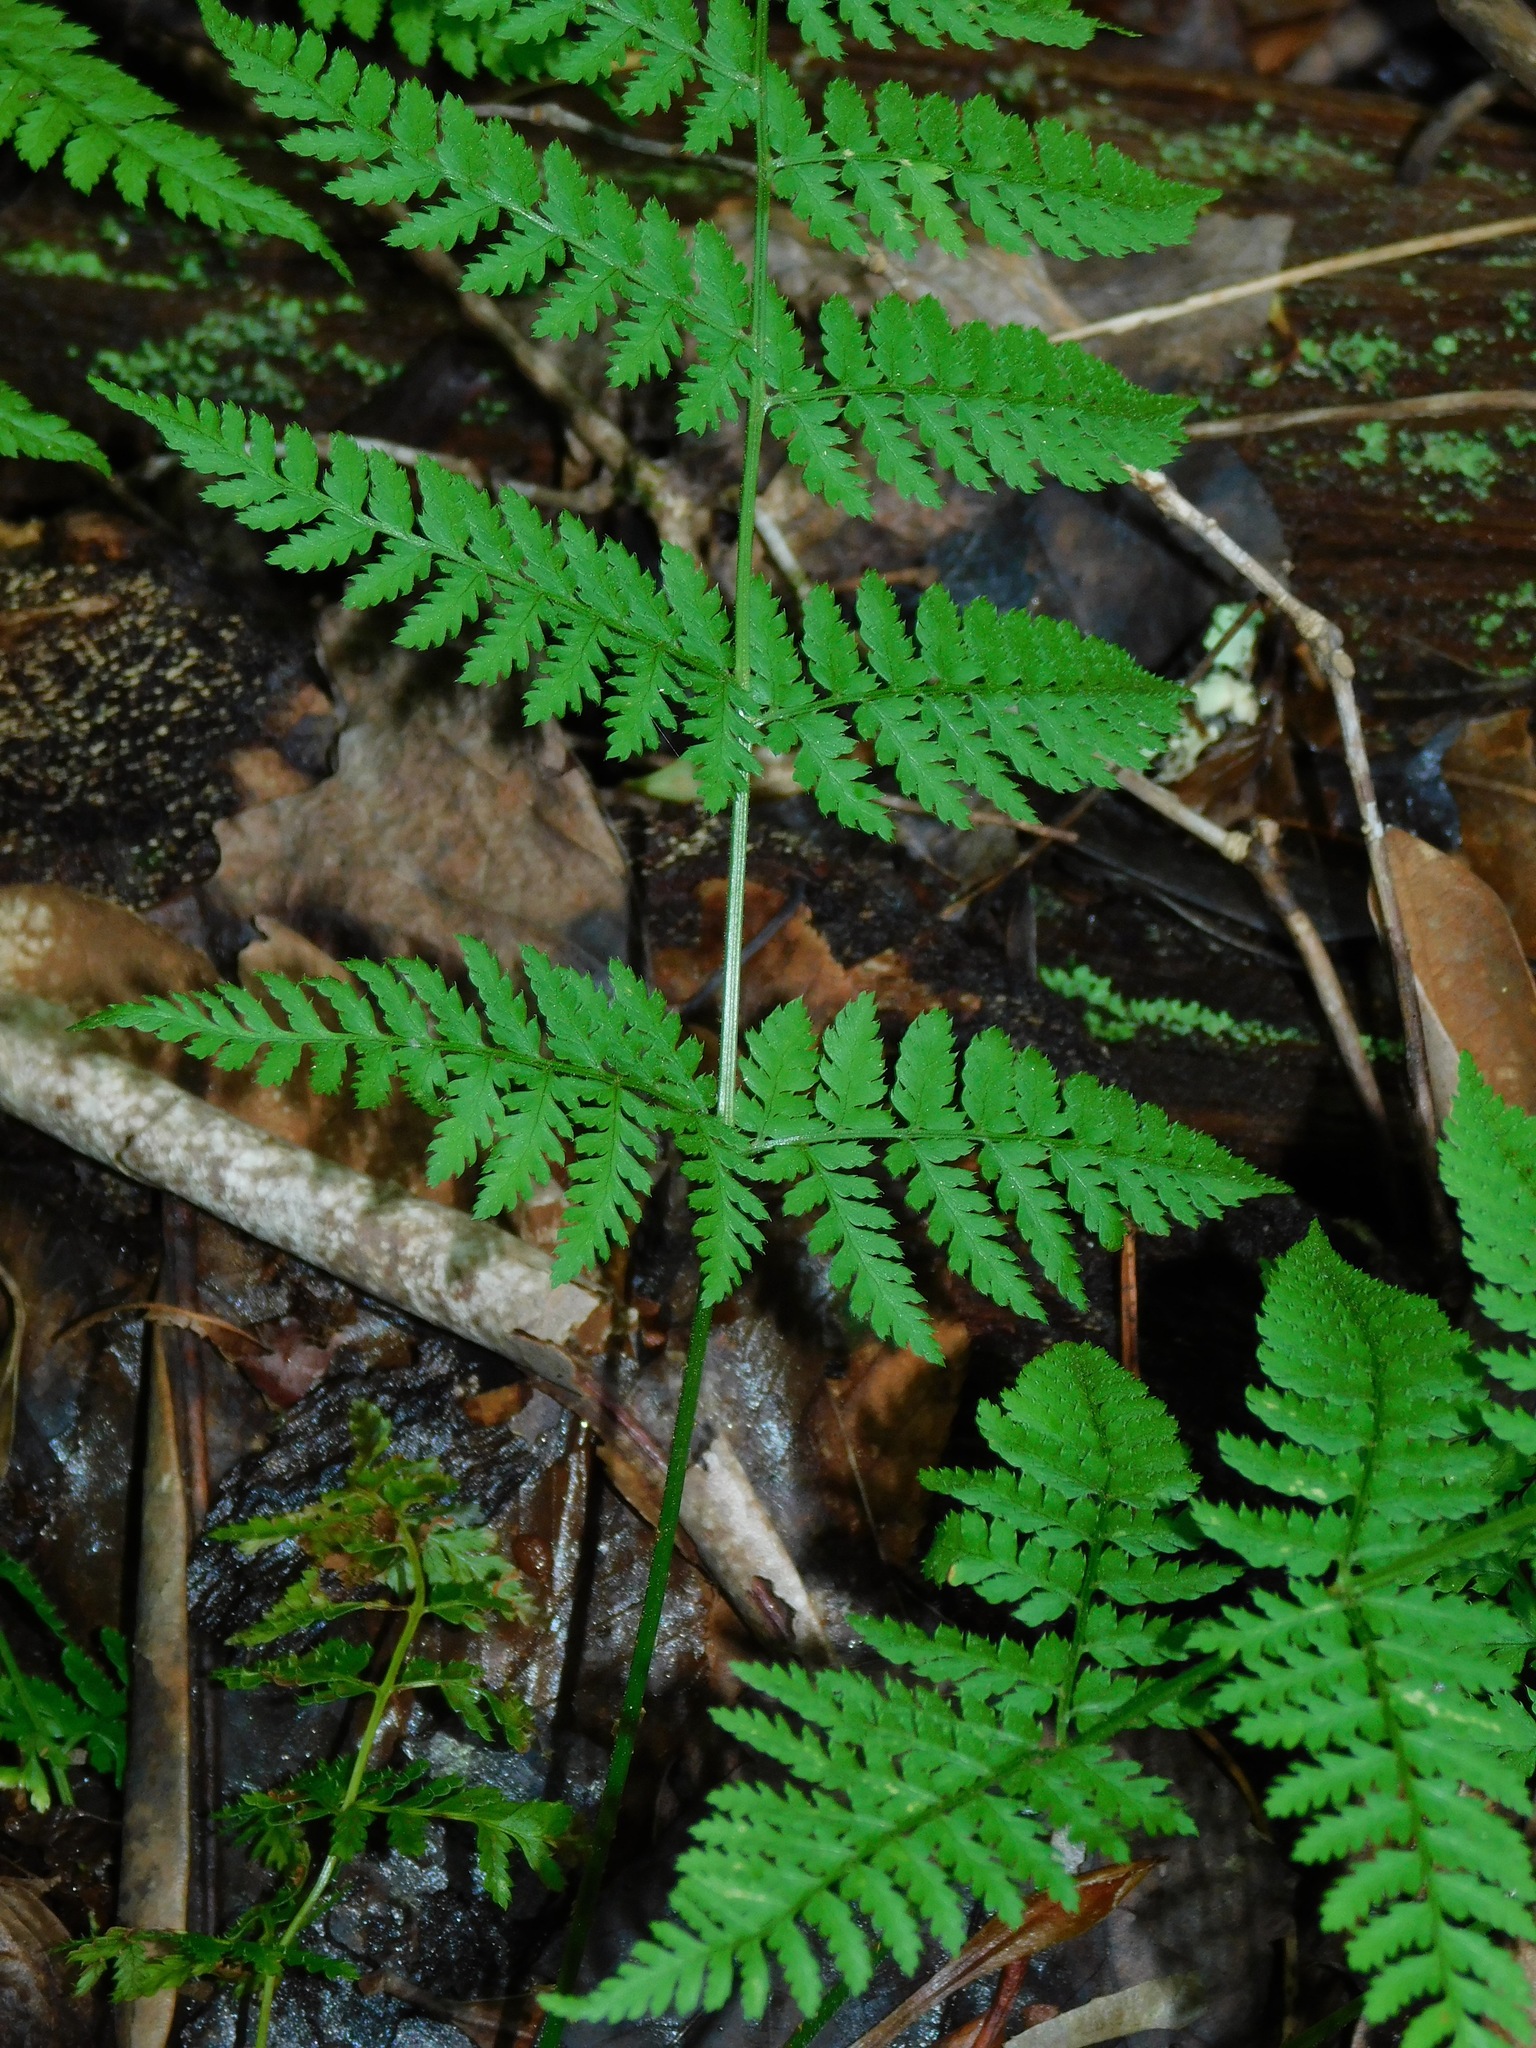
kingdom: Plantae
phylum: Tracheophyta
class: Polypodiopsida
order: Polypodiales
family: Dryopteridaceae
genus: Dryopteris
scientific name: Dryopteris intermedia
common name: Evergreen wood fern
